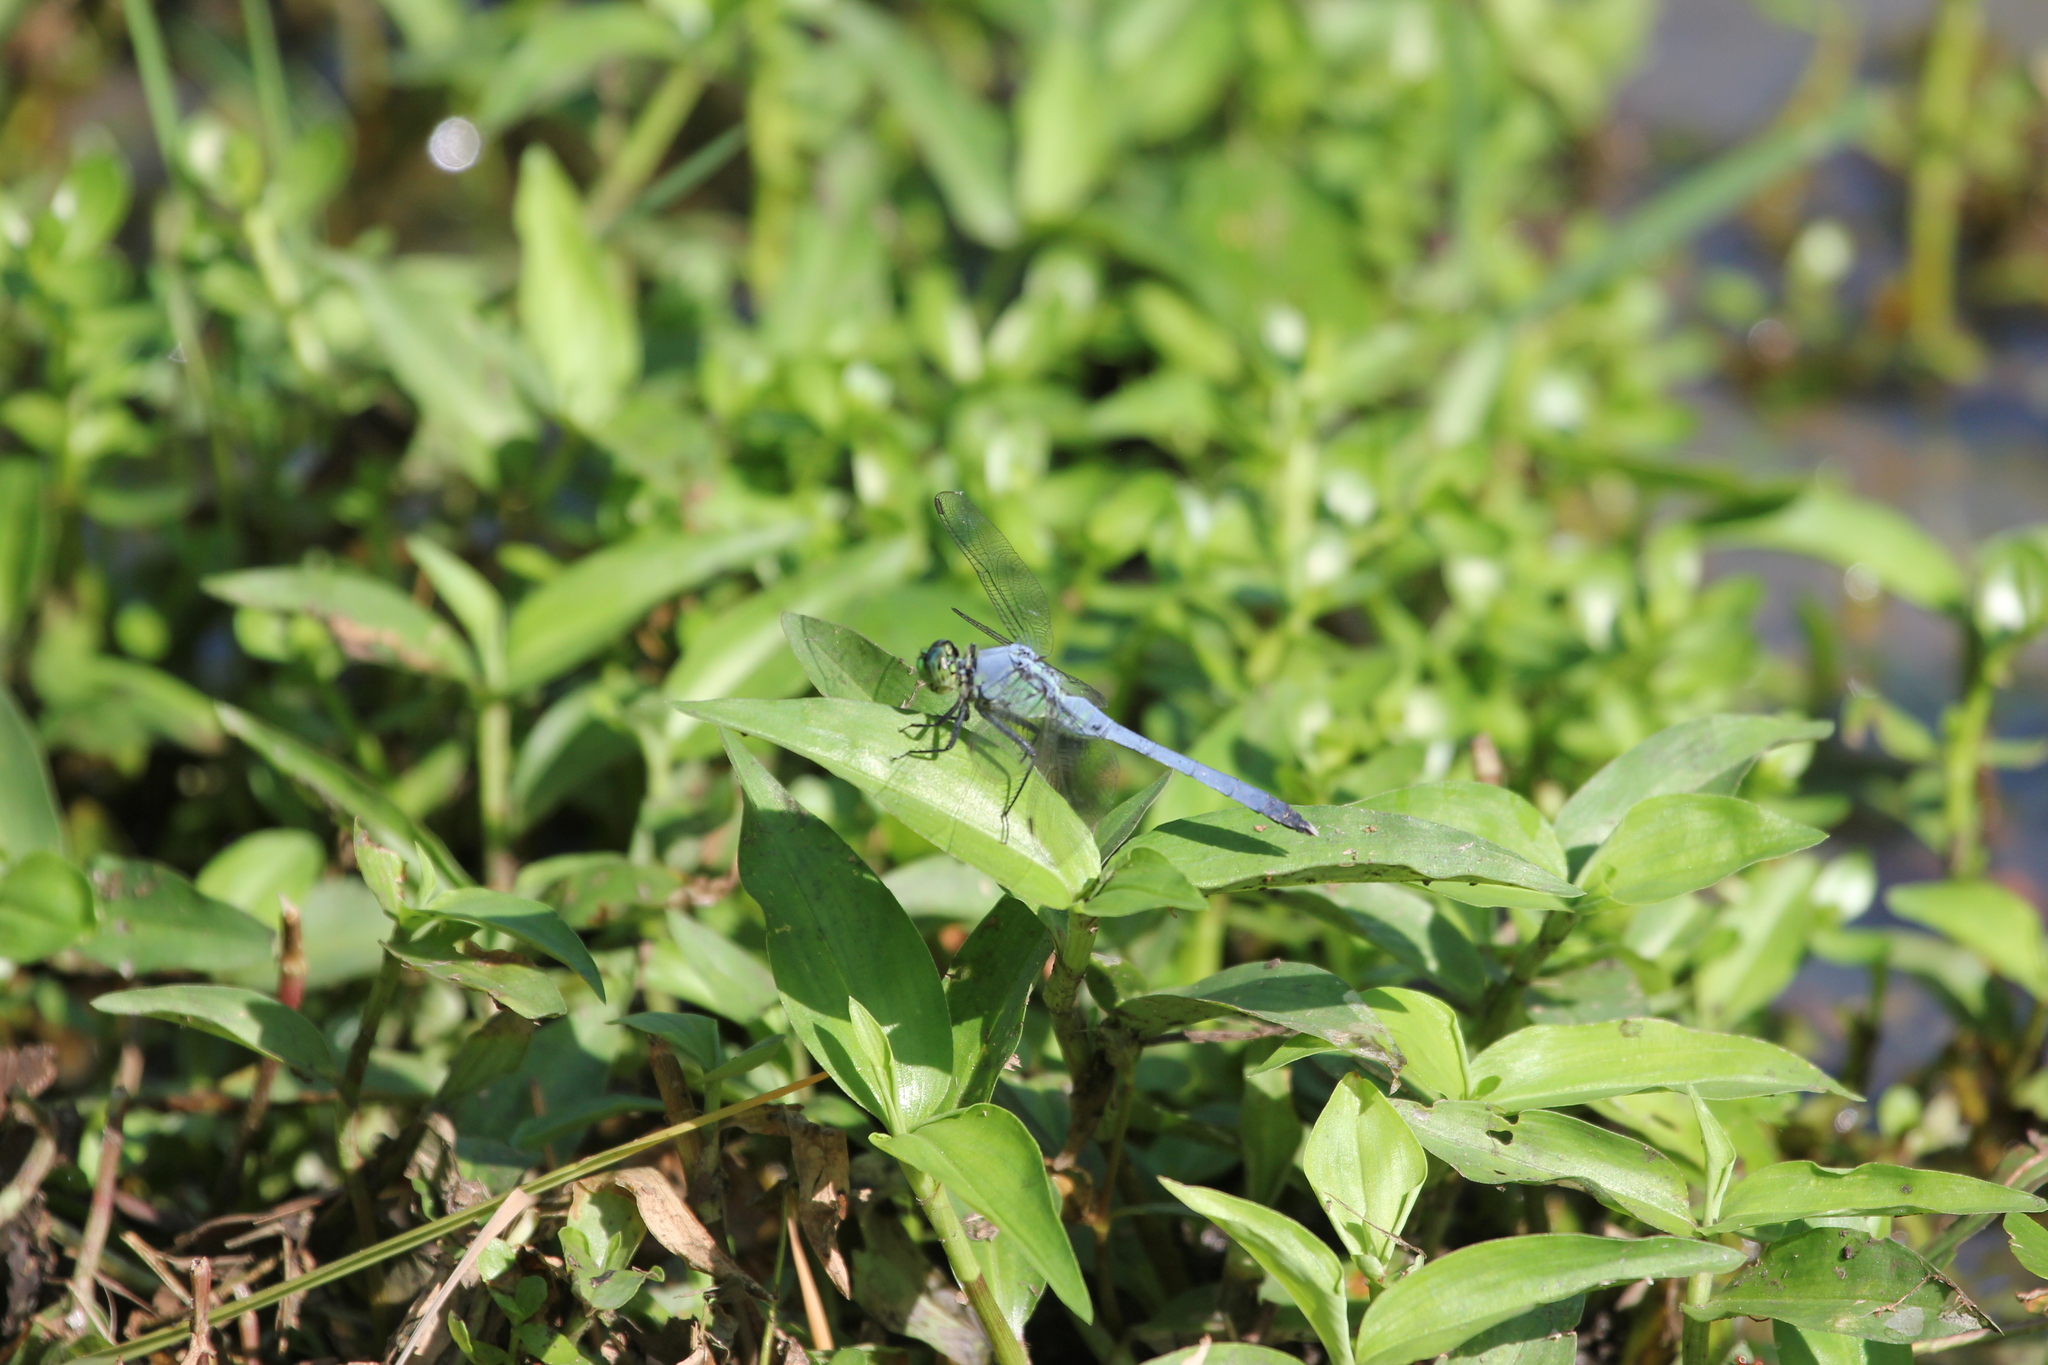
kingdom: Animalia
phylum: Arthropoda
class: Insecta
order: Odonata
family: Libellulidae
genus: Erythemis
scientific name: Erythemis simplicicollis
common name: Eastern pondhawk
